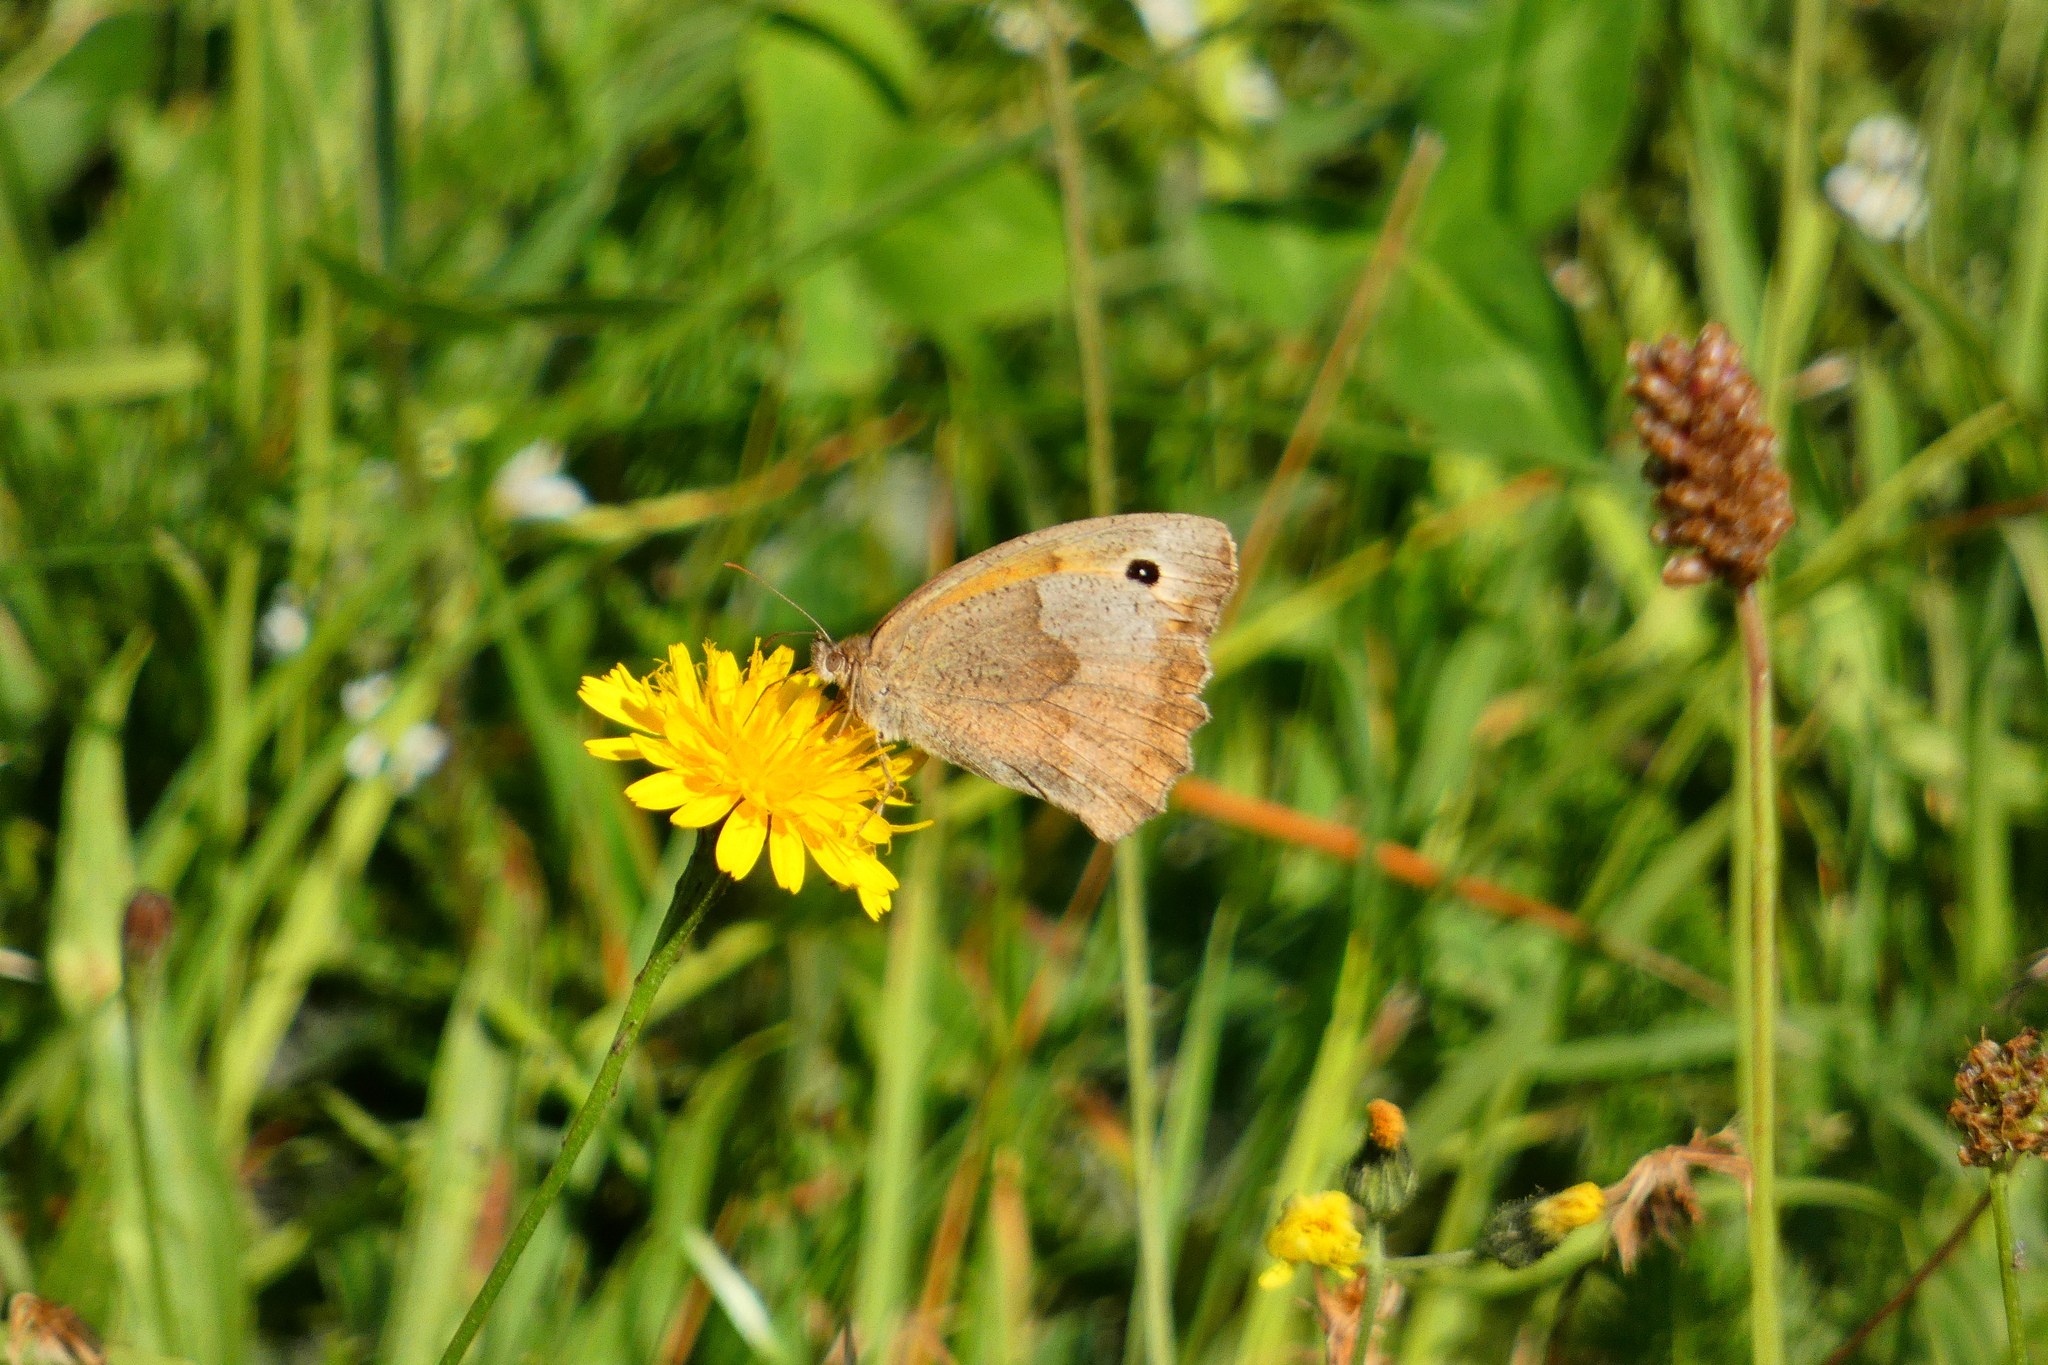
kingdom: Animalia
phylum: Arthropoda
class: Insecta
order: Lepidoptera
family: Nymphalidae
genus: Maniola
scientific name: Maniola jurtina
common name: Meadow brown
